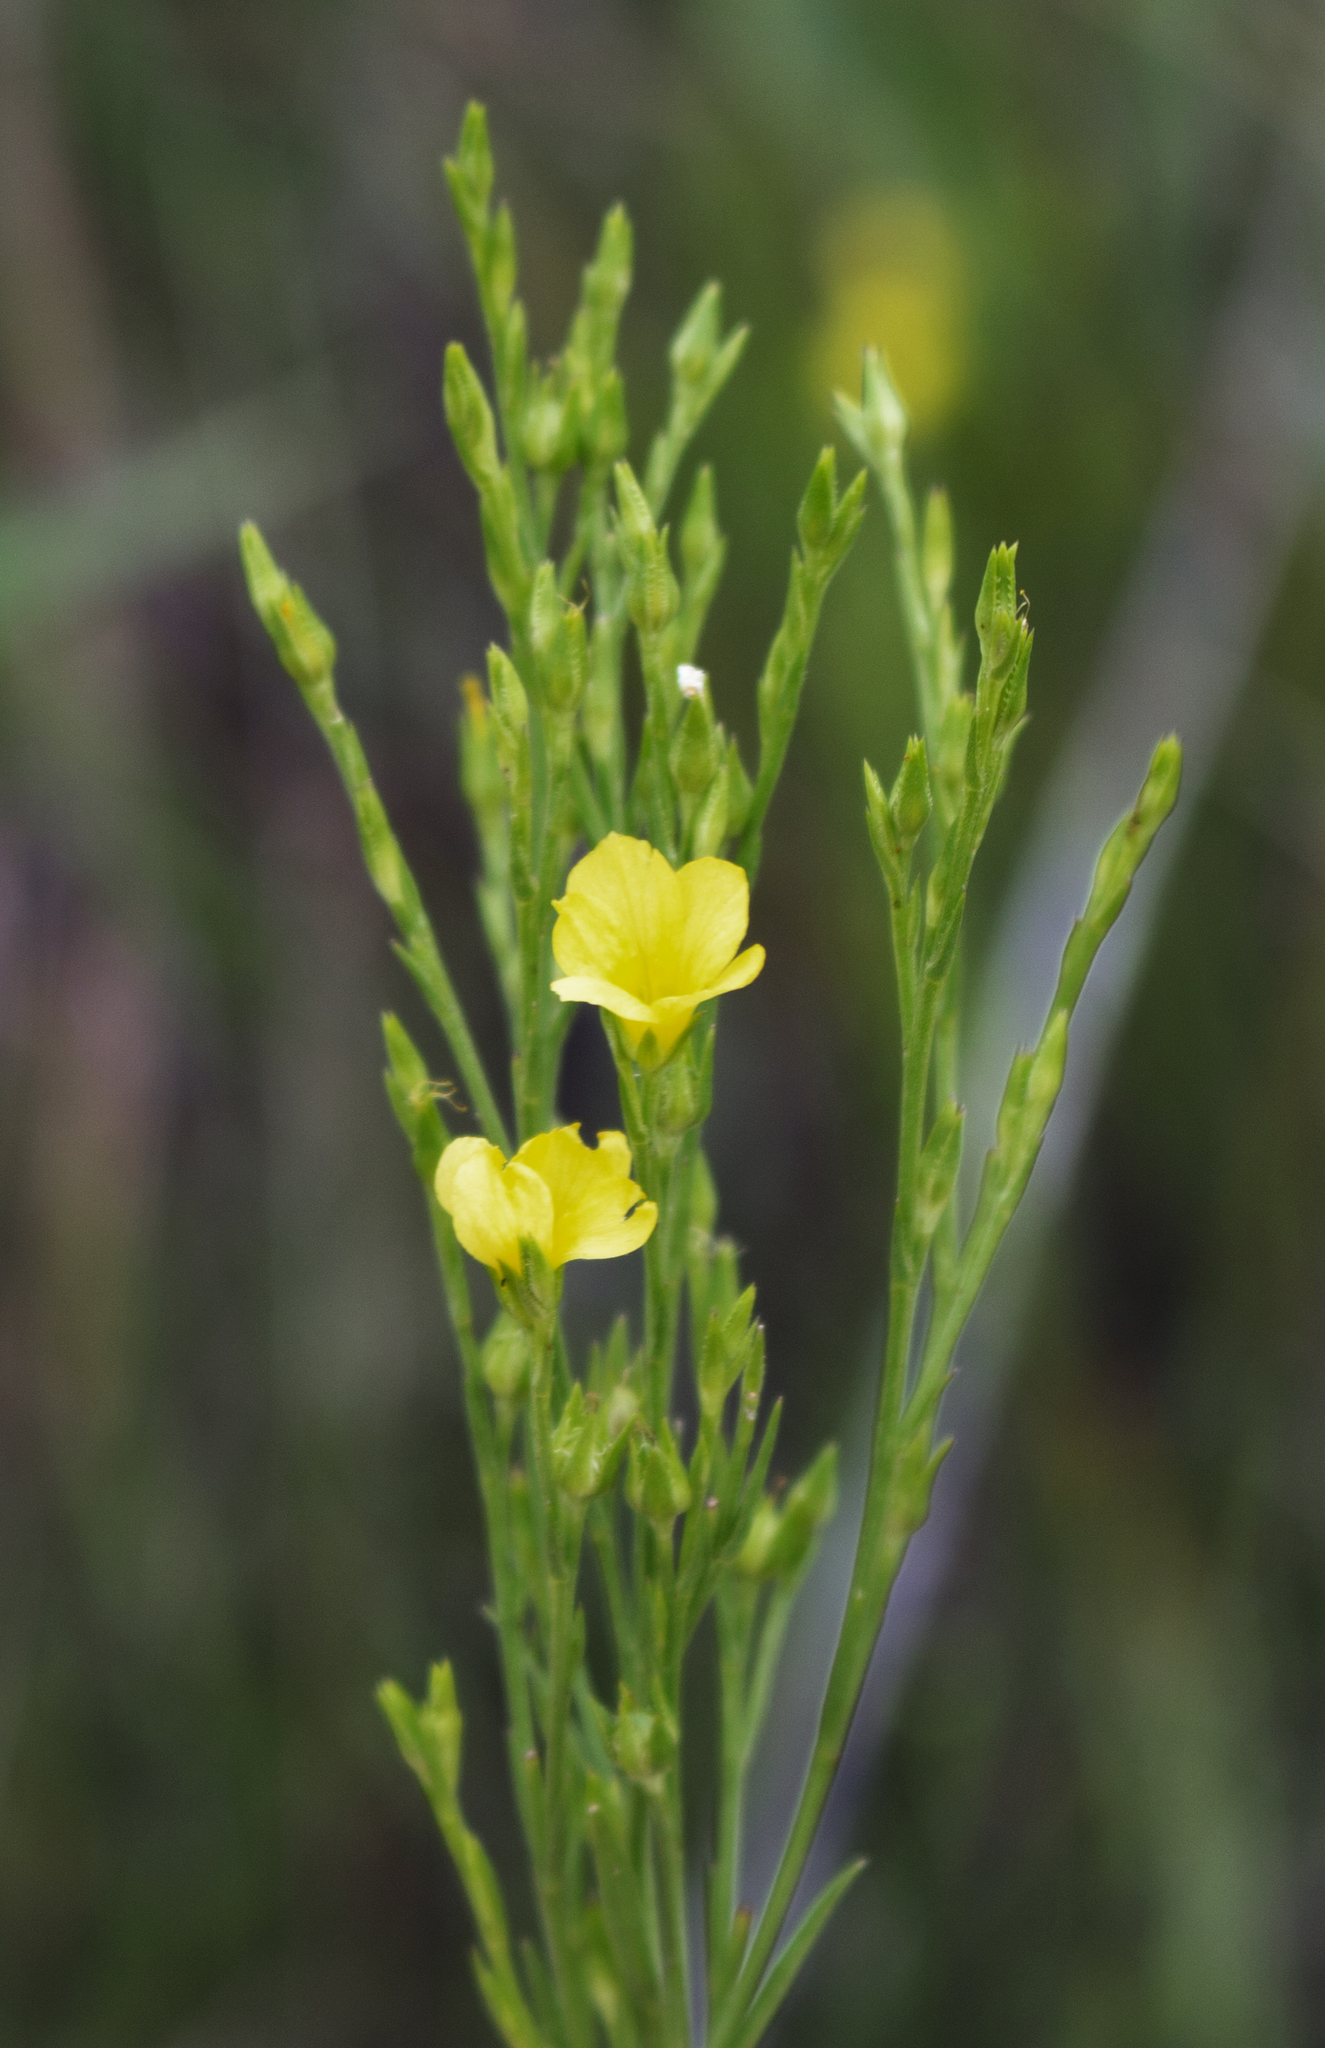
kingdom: Plantae
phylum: Tracheophyta
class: Magnoliopsida
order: Malpighiales
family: Linaceae
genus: Linum
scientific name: Linum sulcatum
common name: Grooved flax
